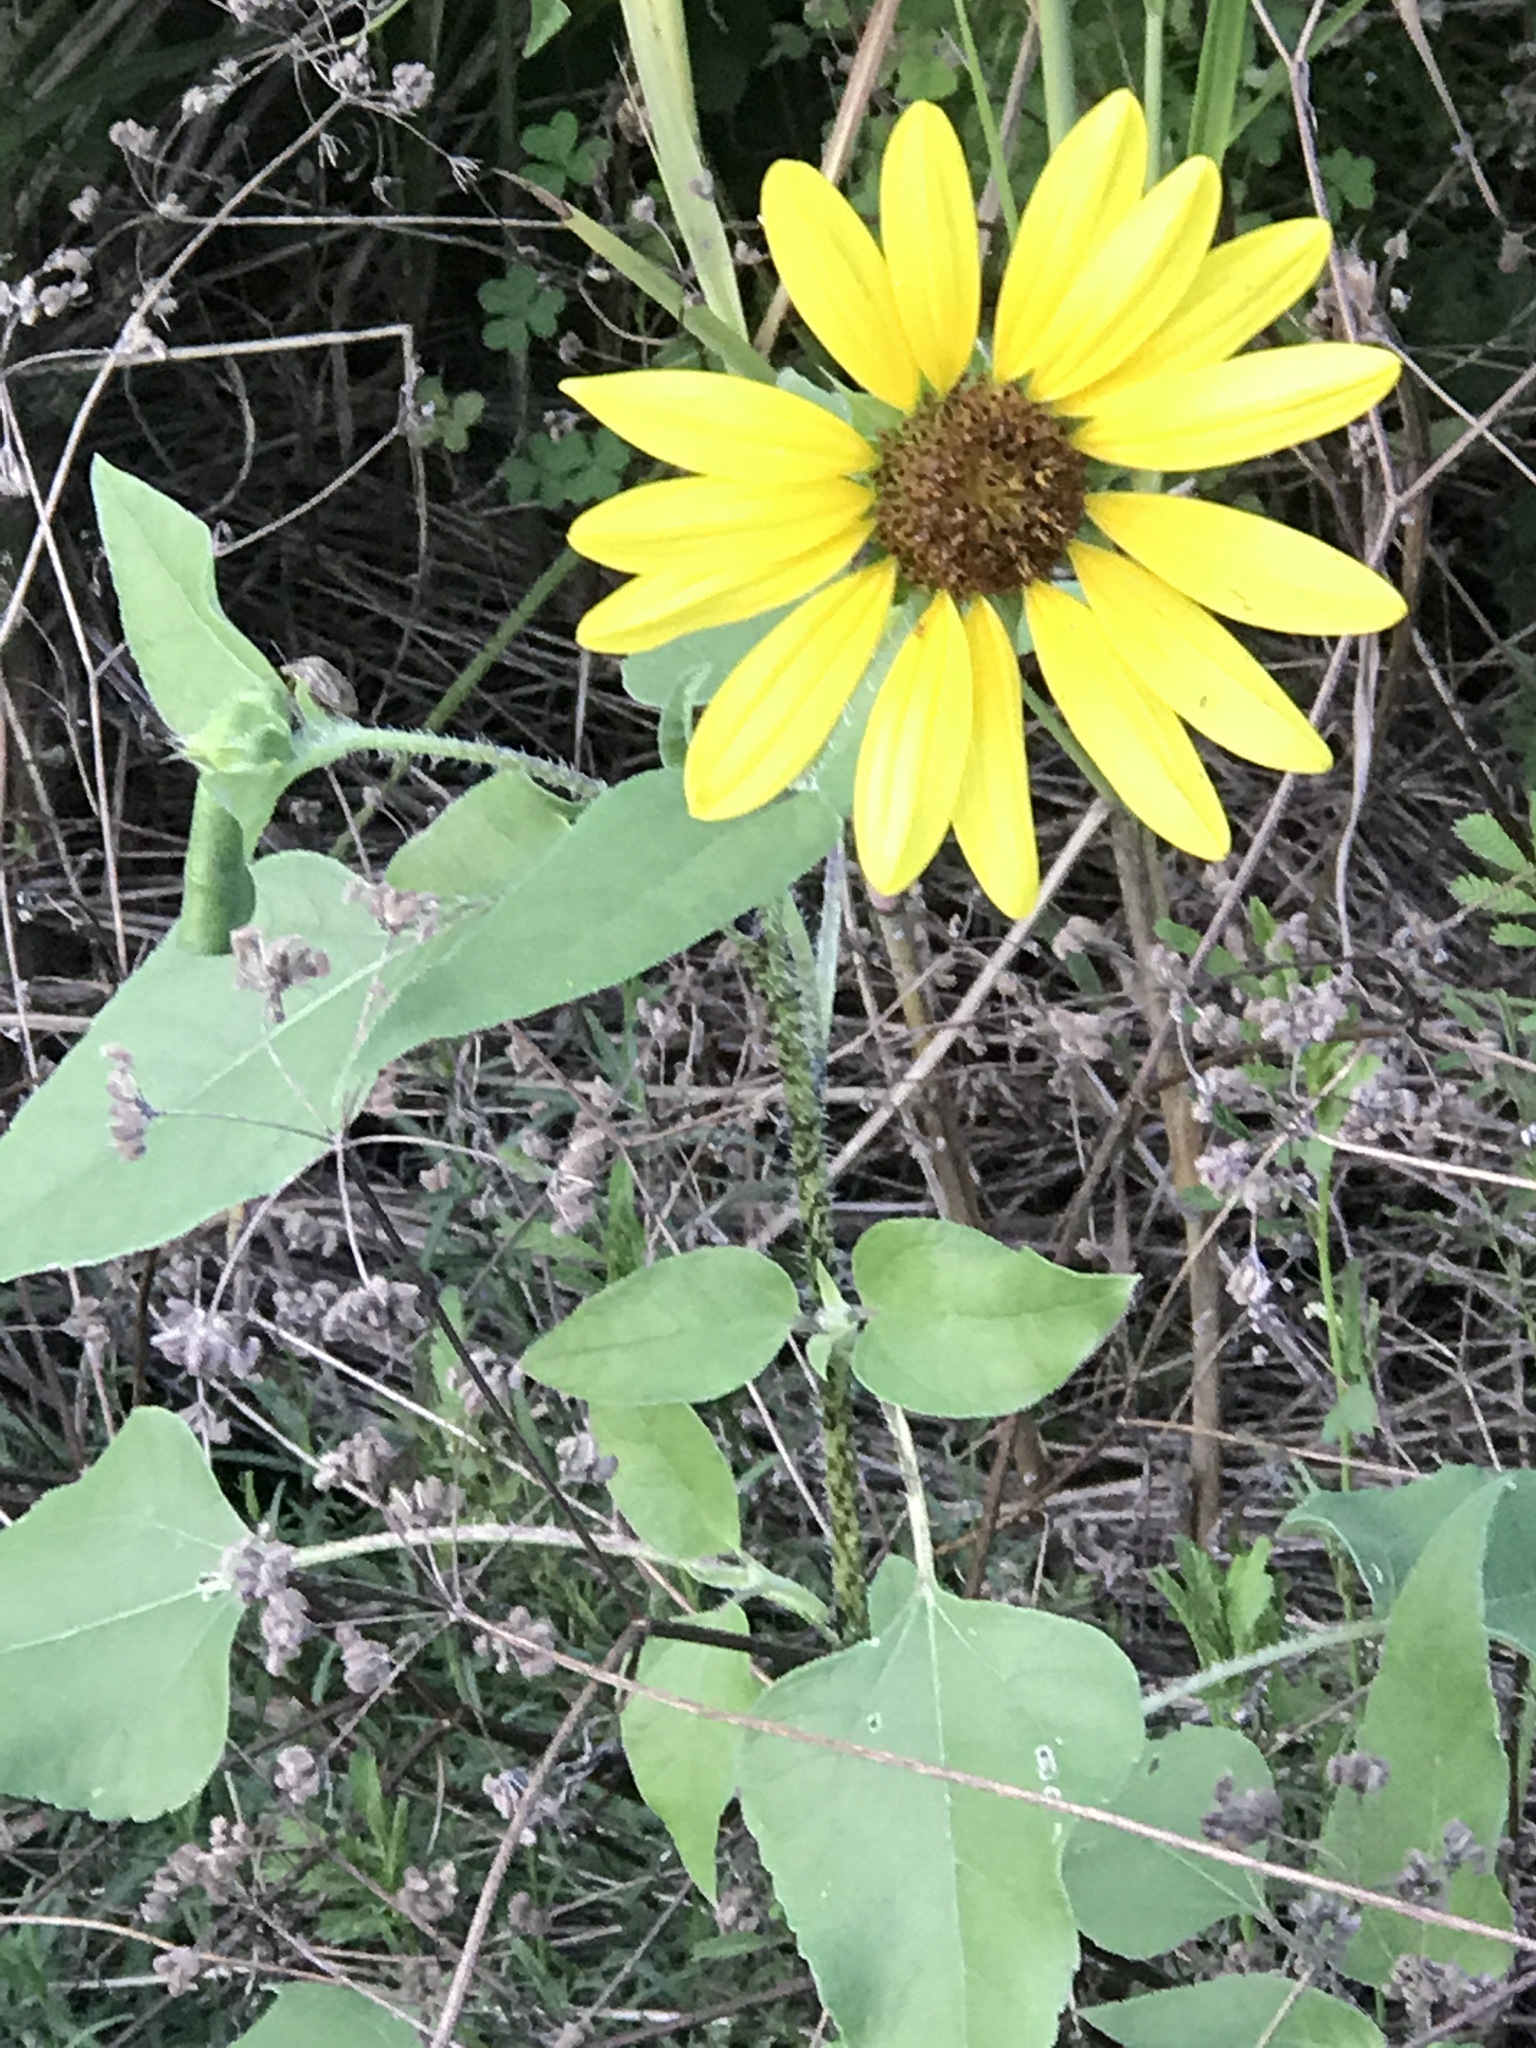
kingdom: Plantae
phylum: Tracheophyta
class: Magnoliopsida
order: Asterales
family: Asteraceae
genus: Helianthus
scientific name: Helianthus annuus
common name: Sunflower
